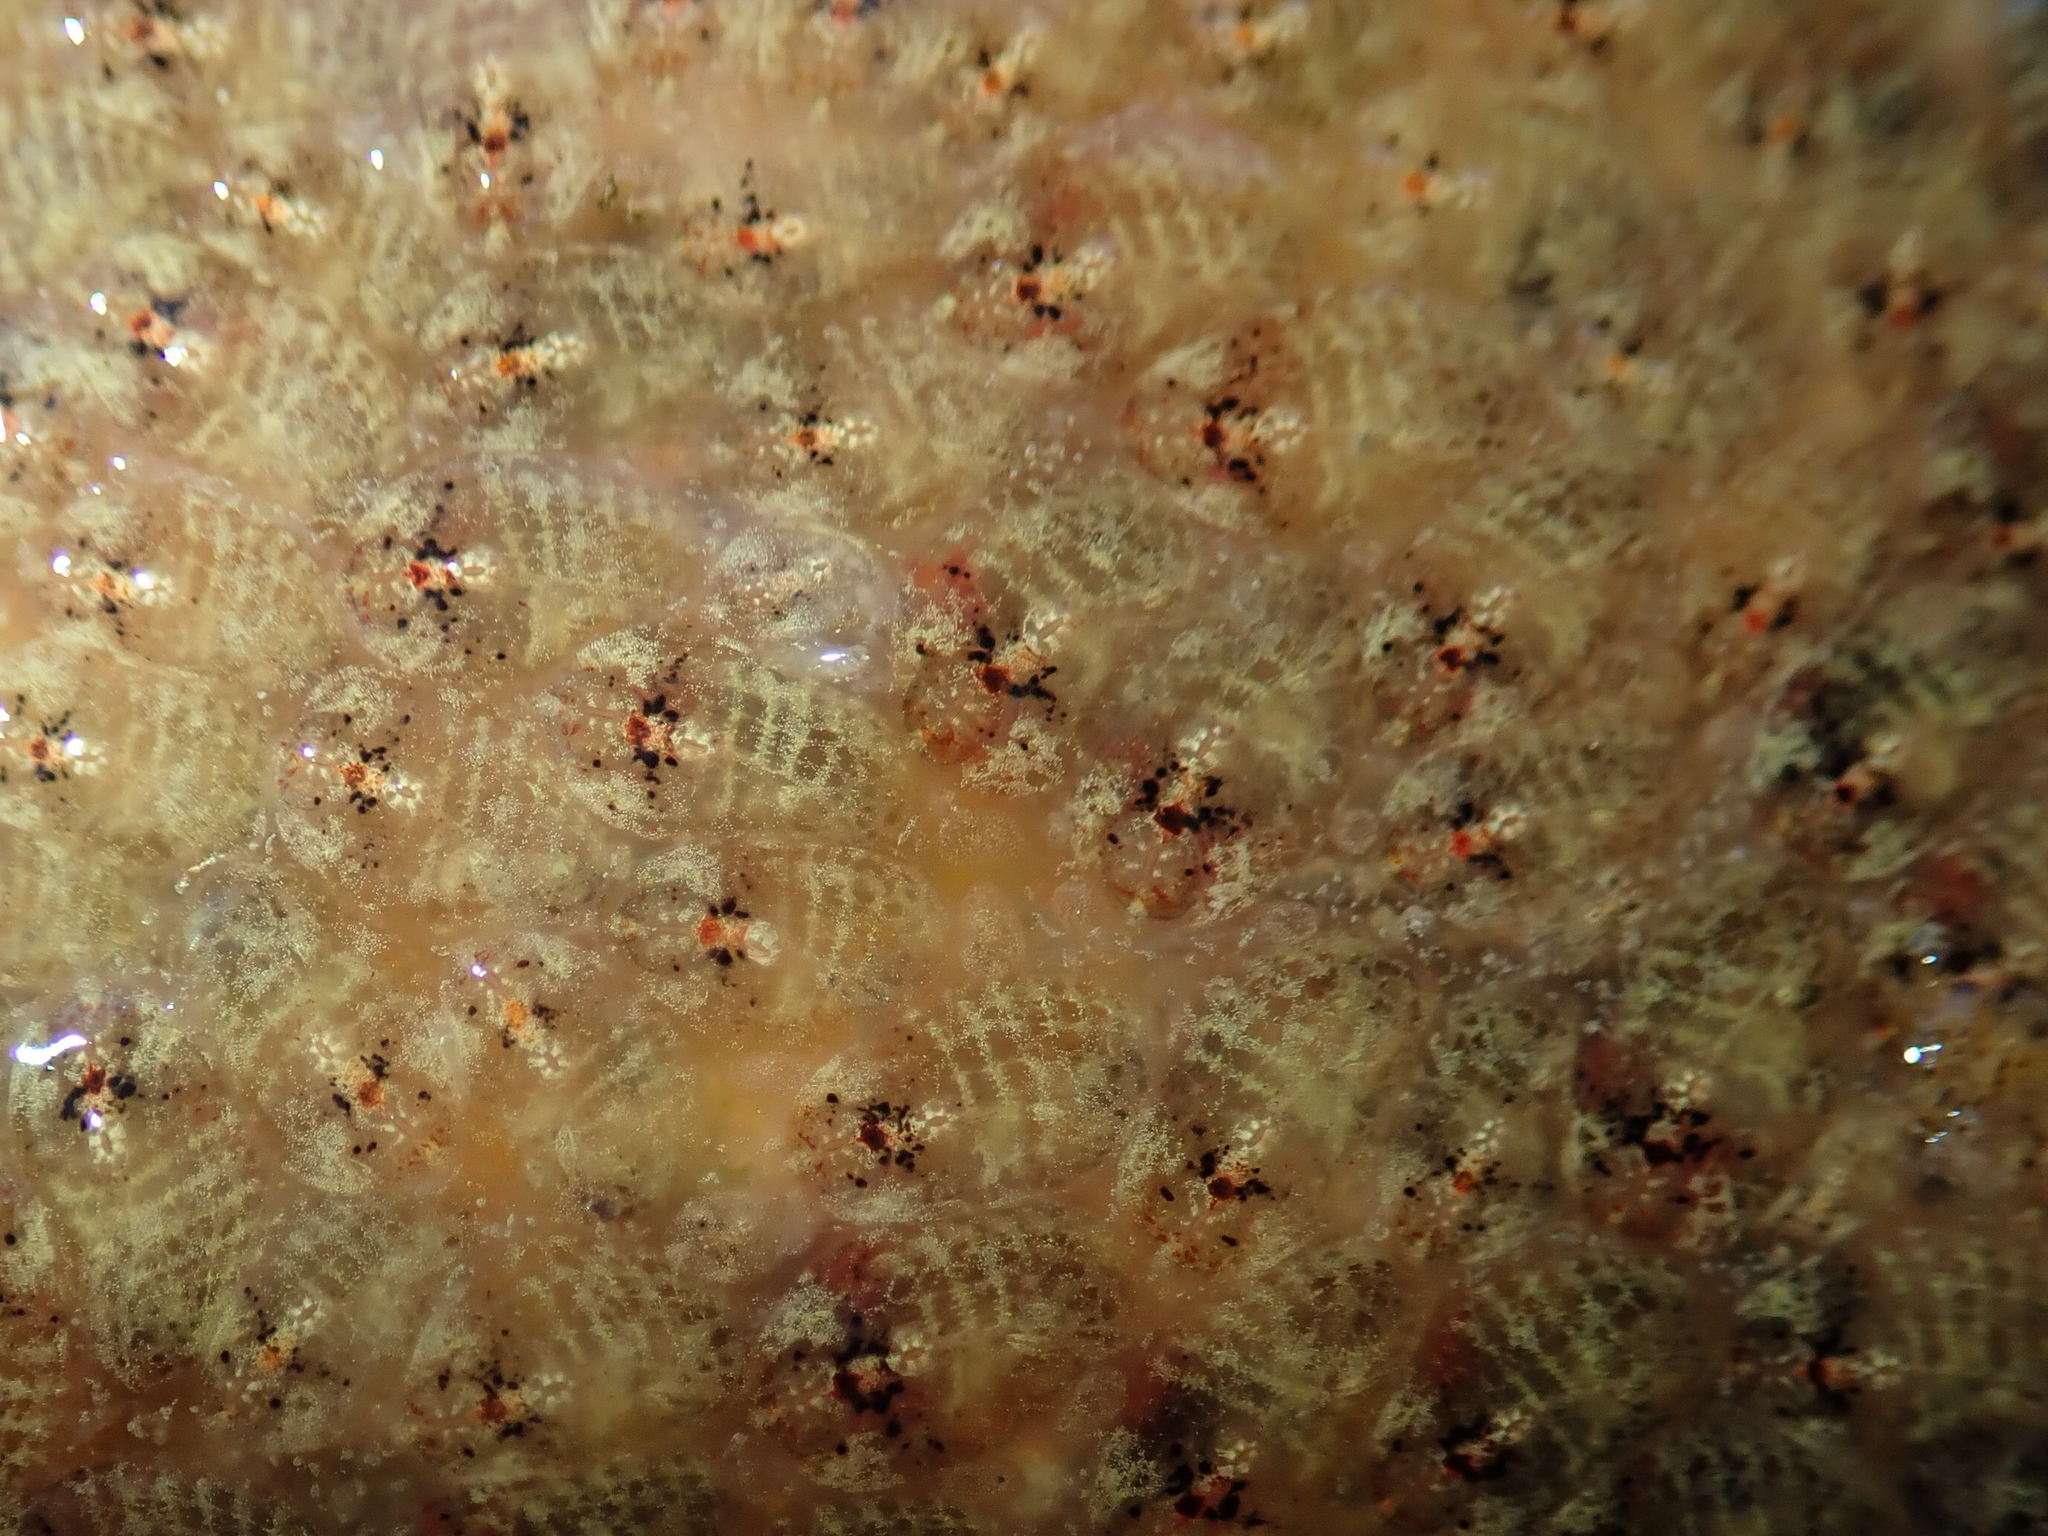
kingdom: Animalia
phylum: Chordata
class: Ascidiacea
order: Stolidobranchia
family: Styelidae
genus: Symplegma
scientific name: Symplegma brakenhielmi
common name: Ascidian
